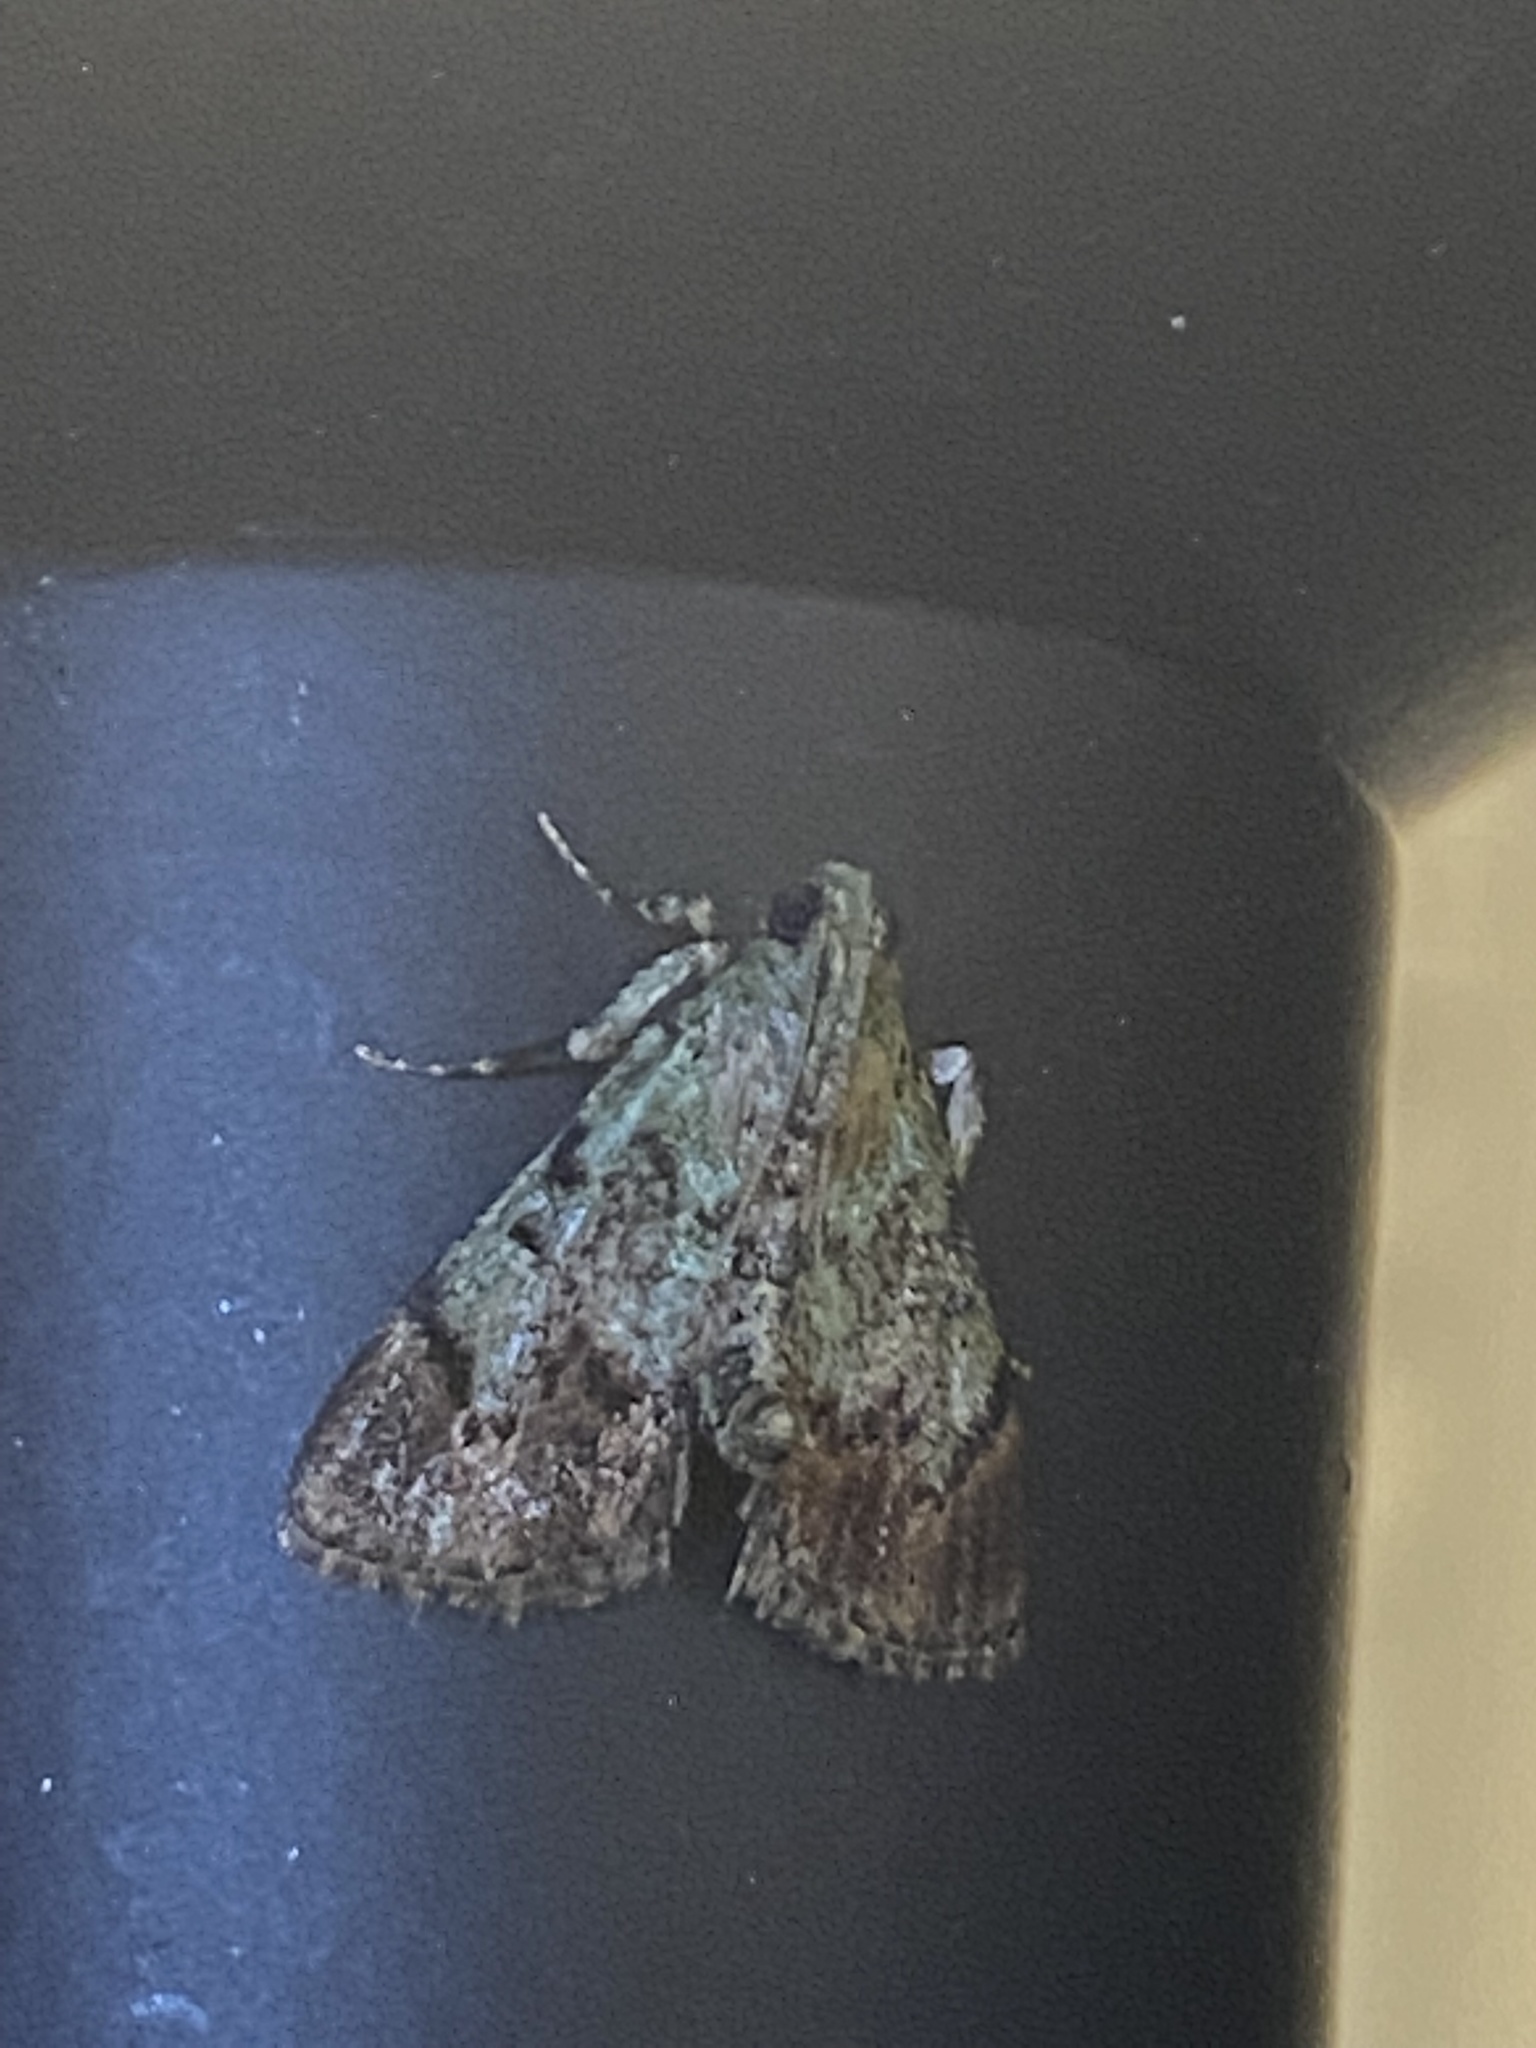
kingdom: Animalia
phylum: Arthropoda
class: Insecta
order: Lepidoptera
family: Pyralidae
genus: Epipaschia
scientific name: Epipaschia superatalis
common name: Dimorphic macalla moth
